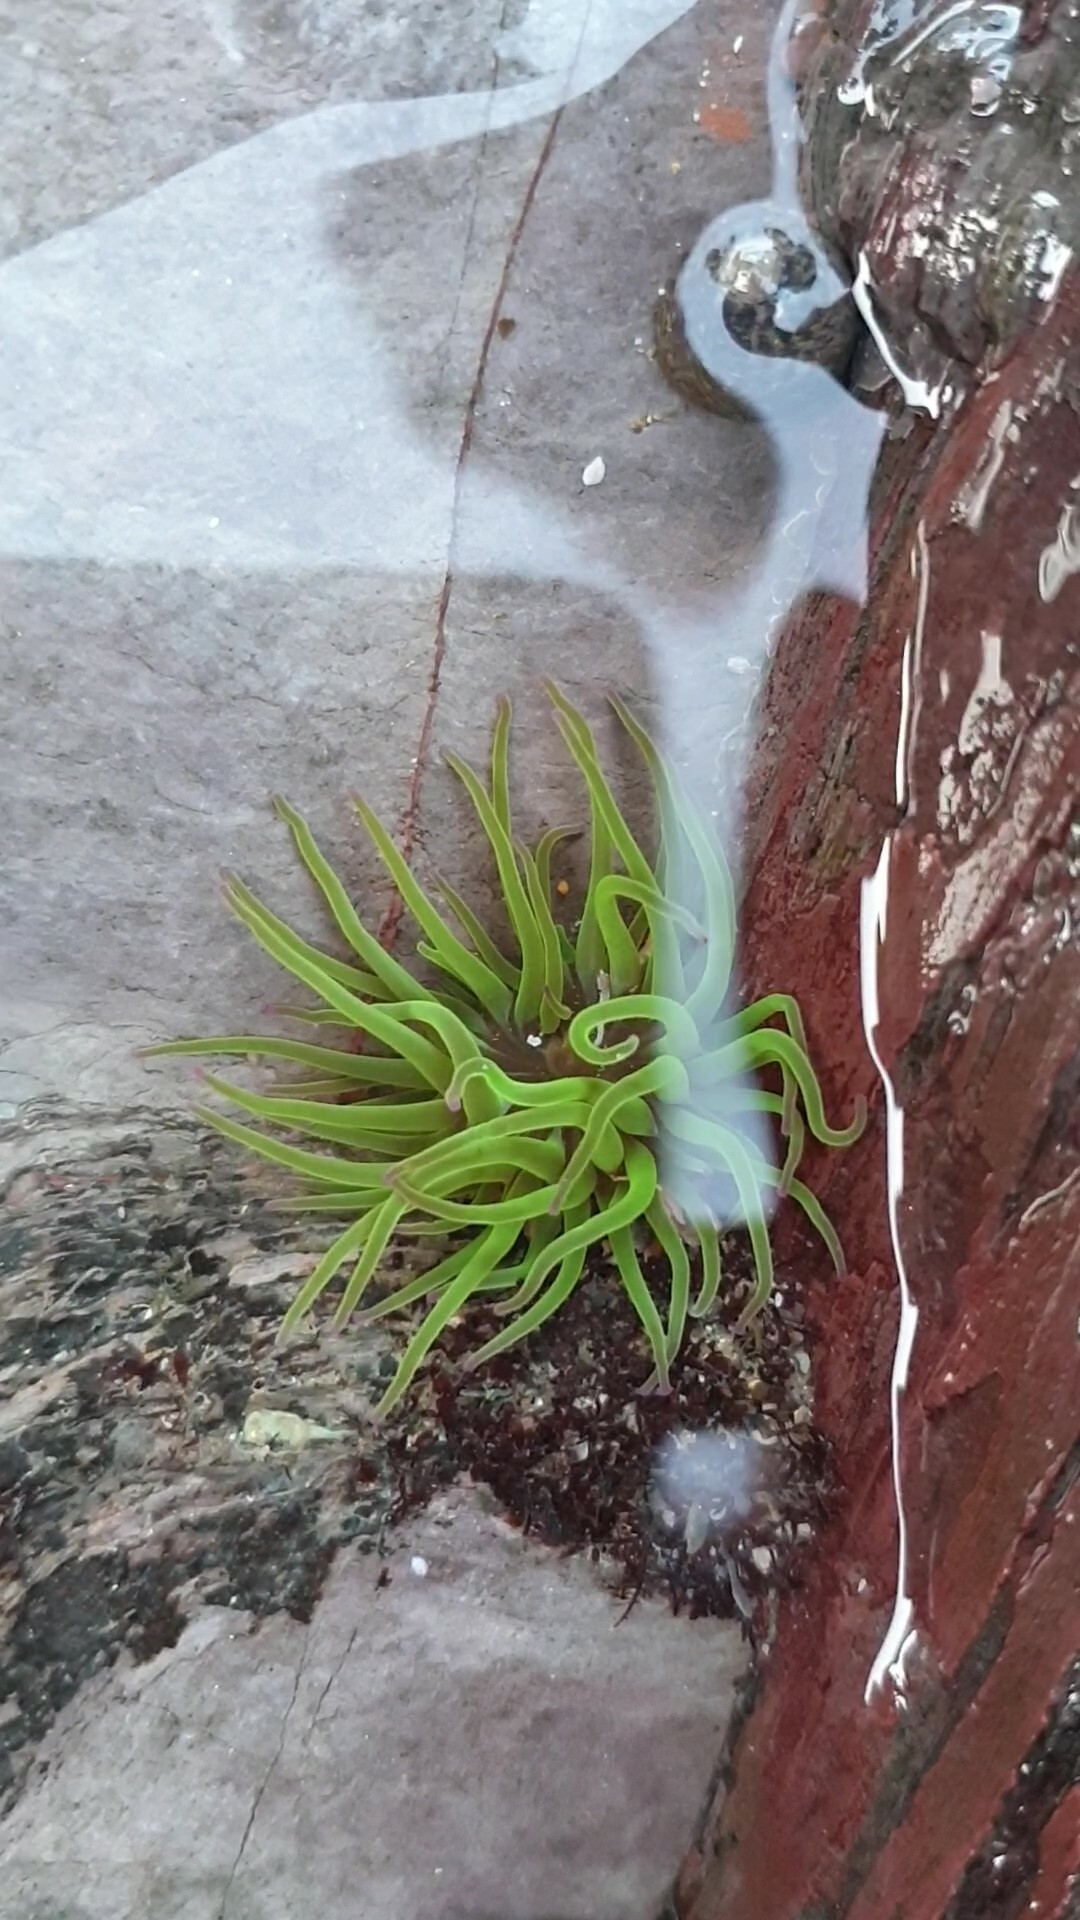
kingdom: Animalia
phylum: Cnidaria
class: Anthozoa
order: Actiniaria
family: Actiniidae
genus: Anemonia
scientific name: Anemonia viridis
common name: Snakelocks anemone
